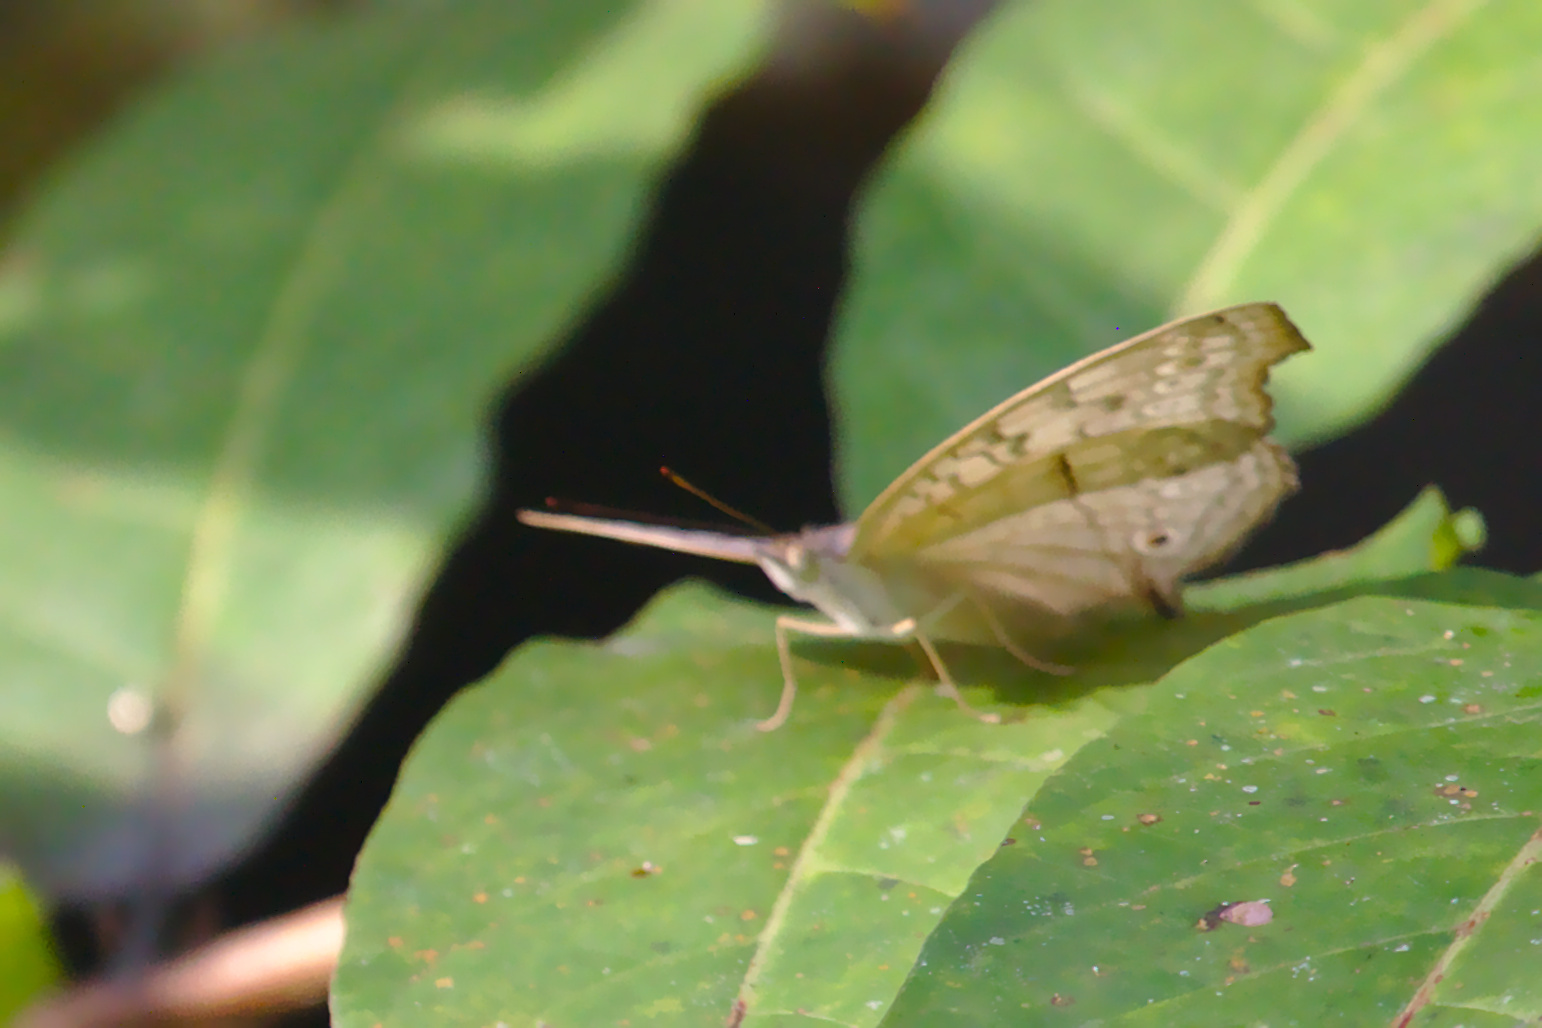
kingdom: Animalia
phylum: Arthropoda
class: Insecta
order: Lepidoptera
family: Nymphalidae
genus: Junonia
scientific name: Junonia atlites
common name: Grey pansy
